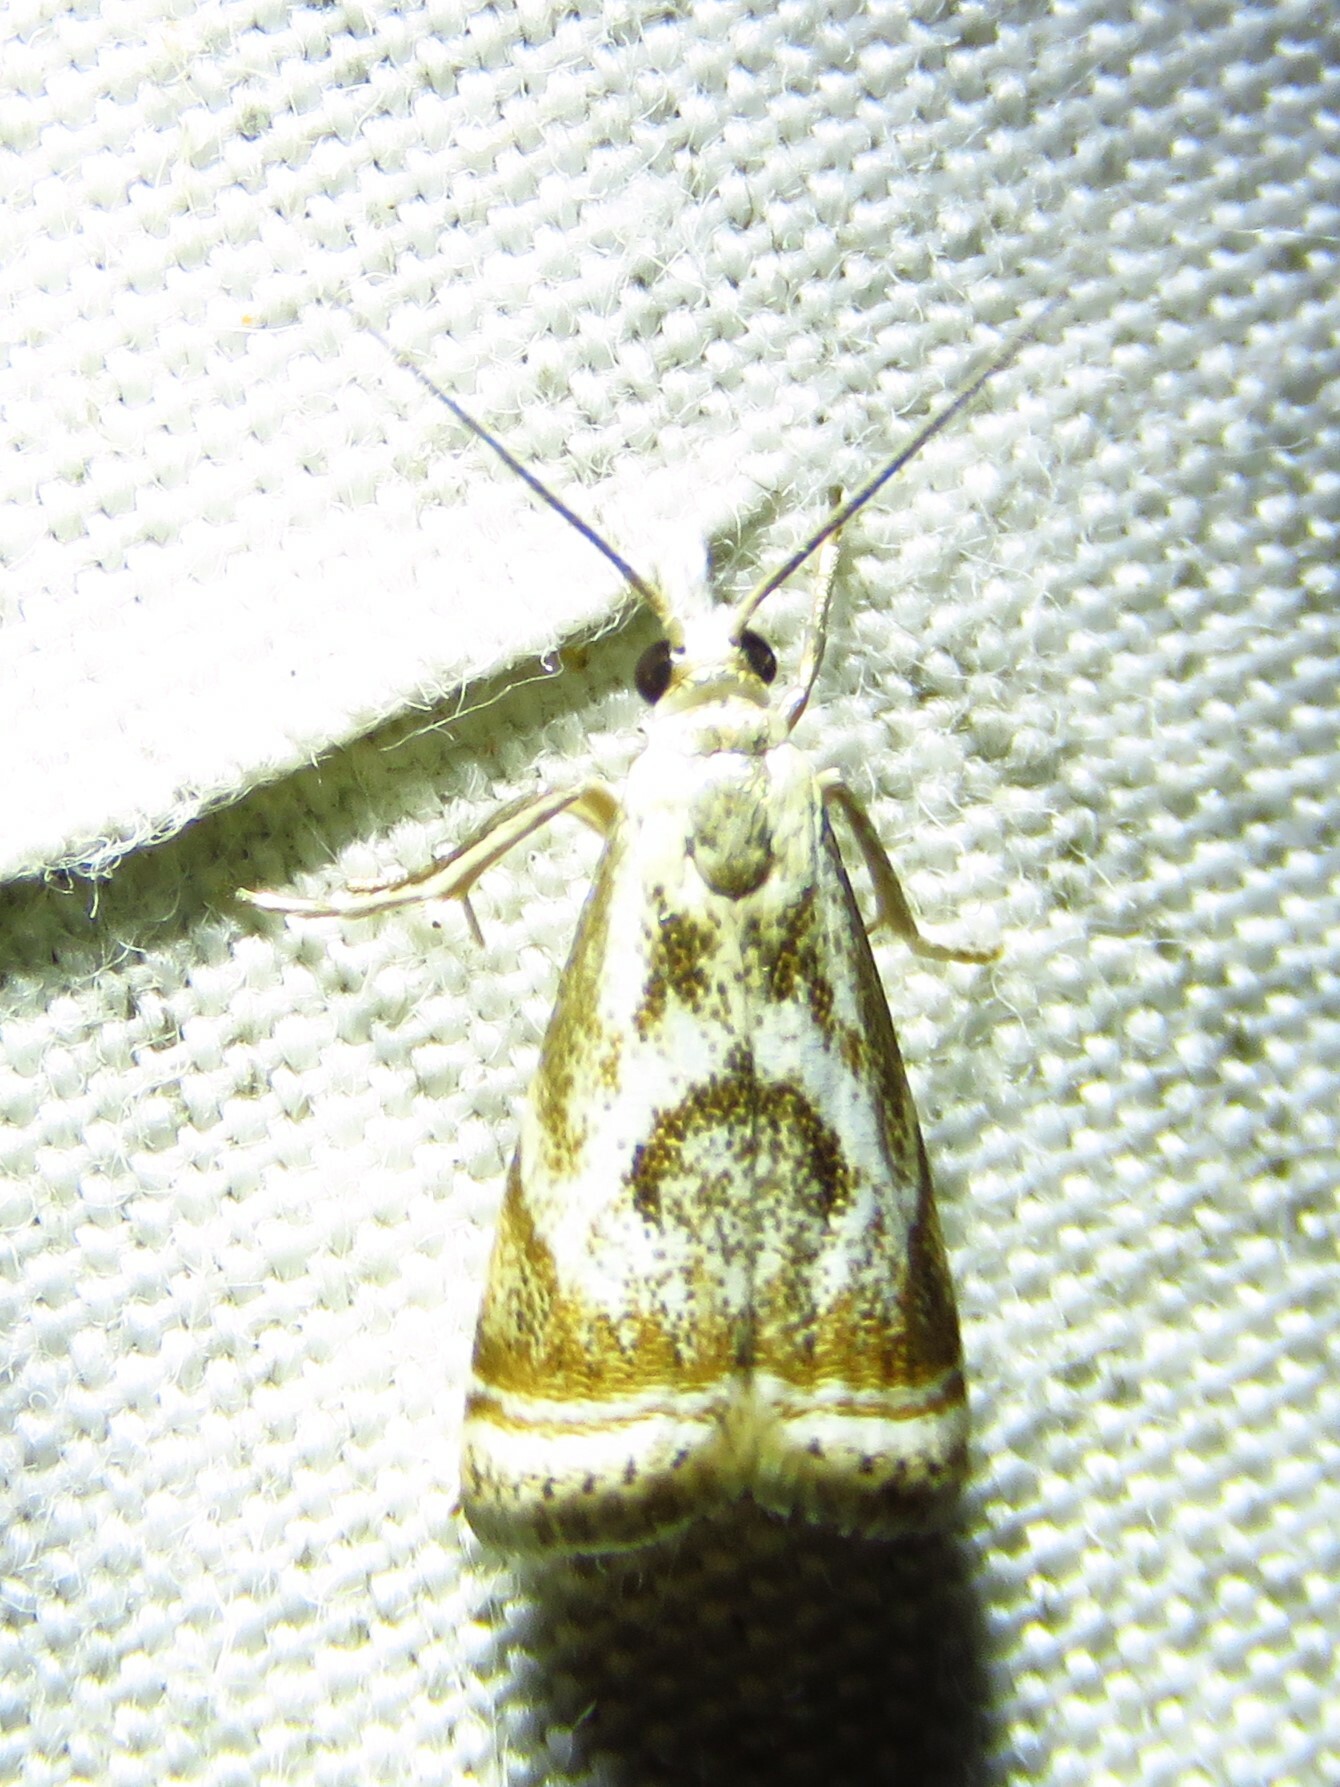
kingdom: Animalia
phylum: Arthropoda
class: Insecta
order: Lepidoptera
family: Crambidae
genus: Microcrambus
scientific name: Microcrambus elegans
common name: Elegant grass-veneer
